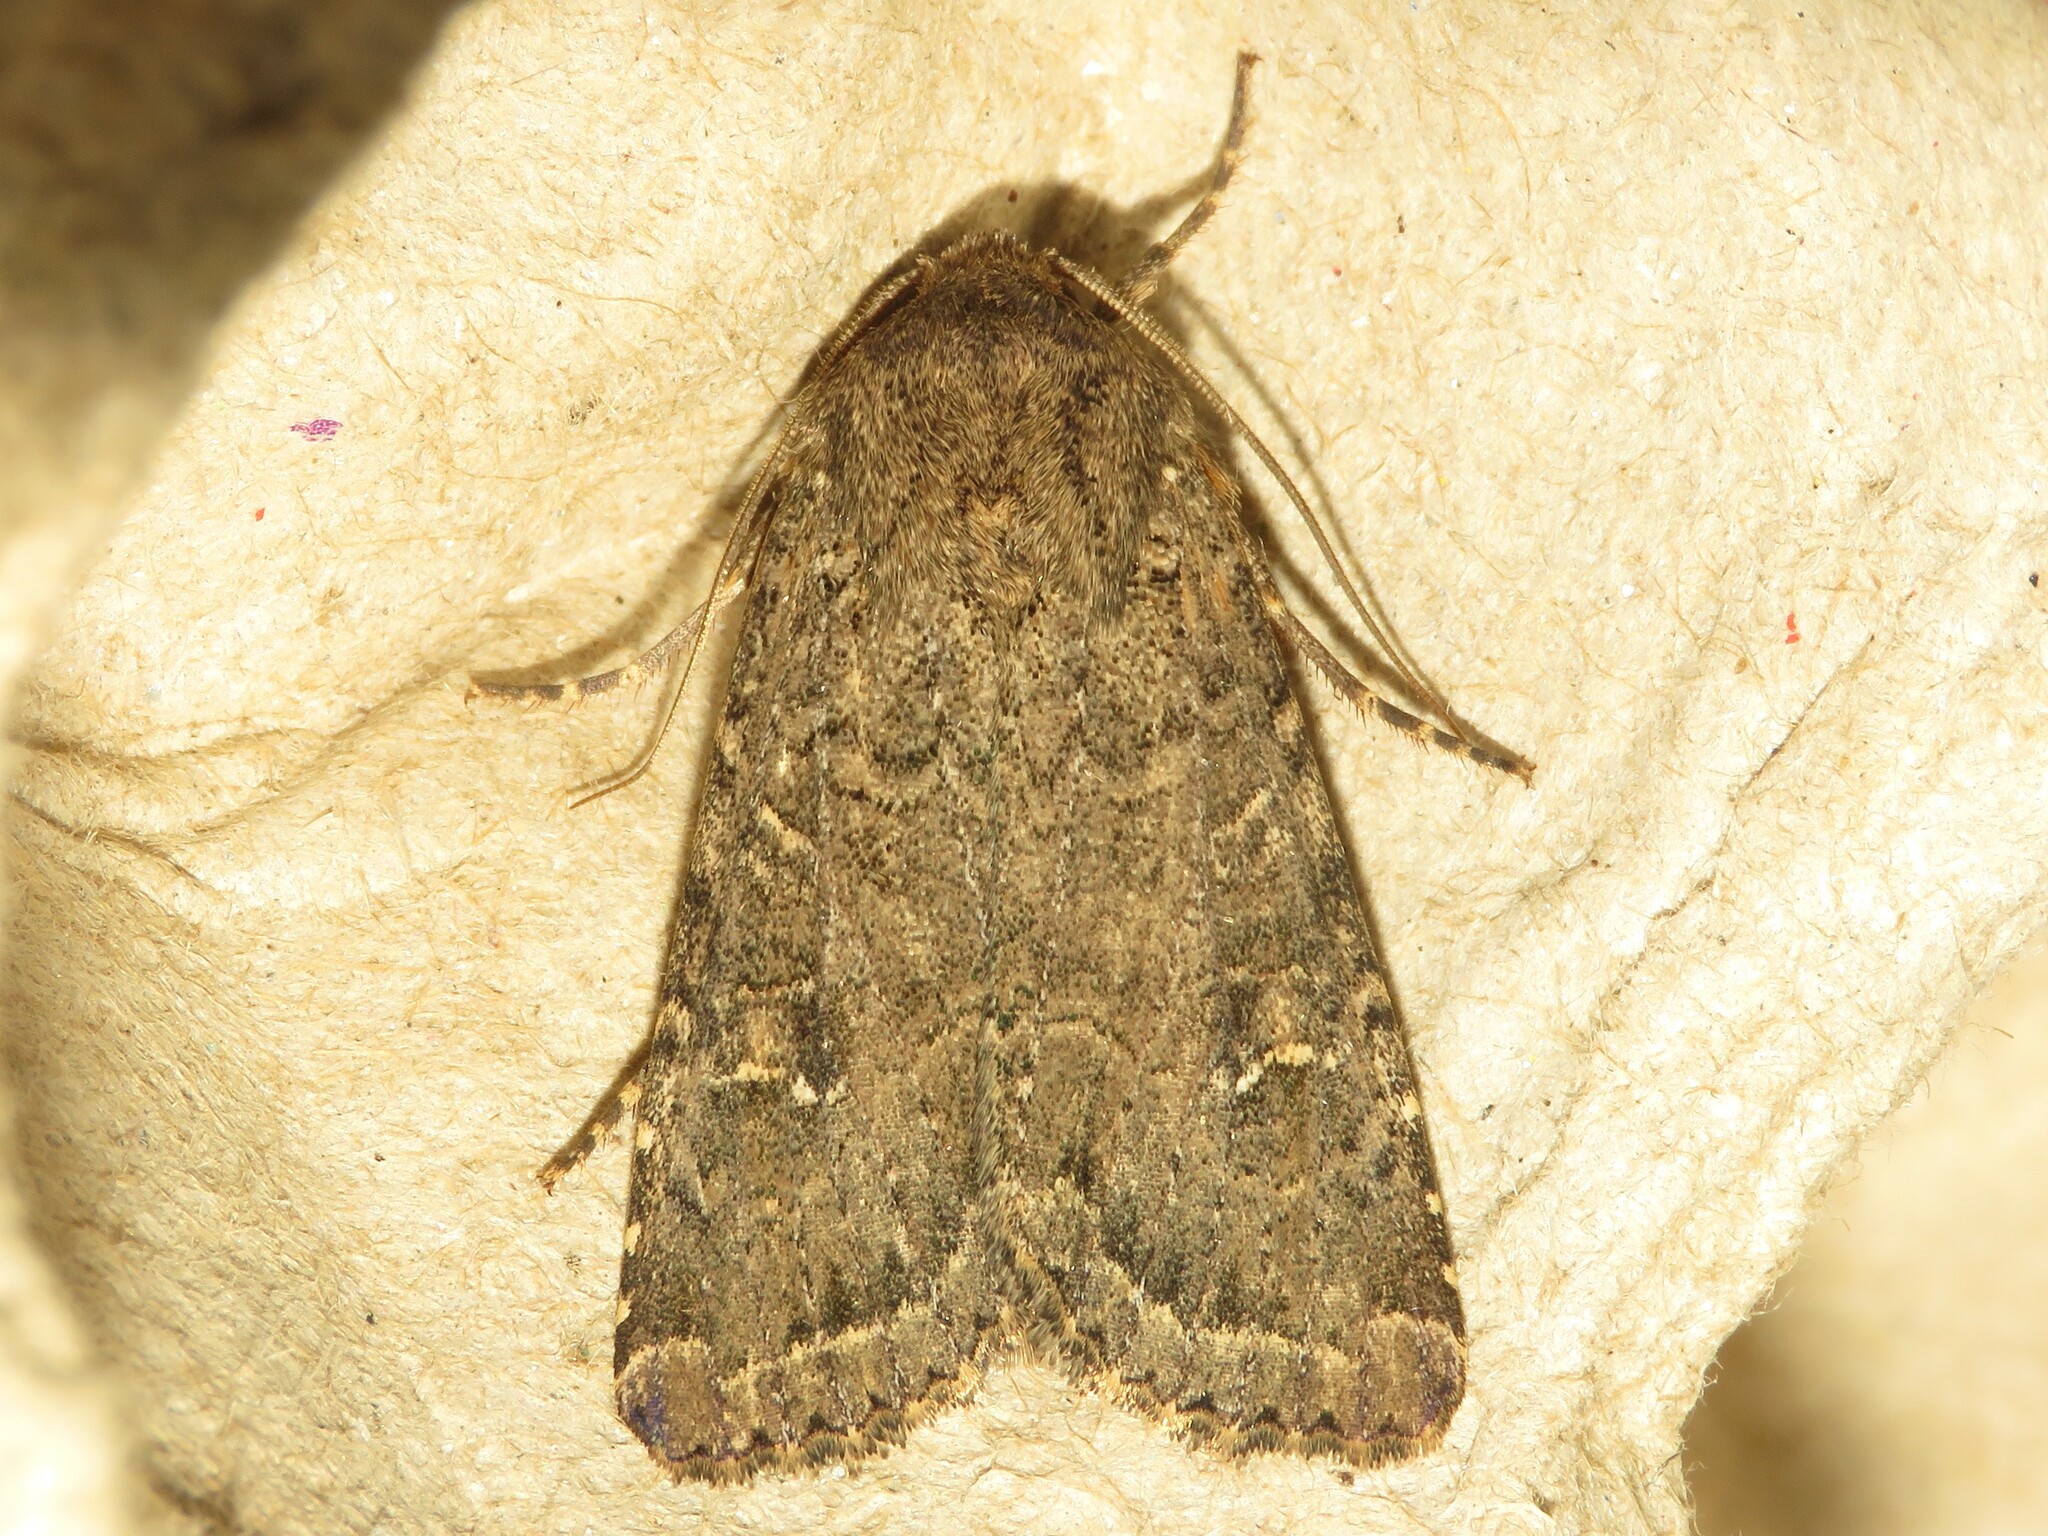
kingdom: Animalia
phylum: Arthropoda
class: Insecta
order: Lepidoptera
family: Noctuidae
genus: Apamea
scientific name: Apamea devastator
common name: Glassy cutworm
